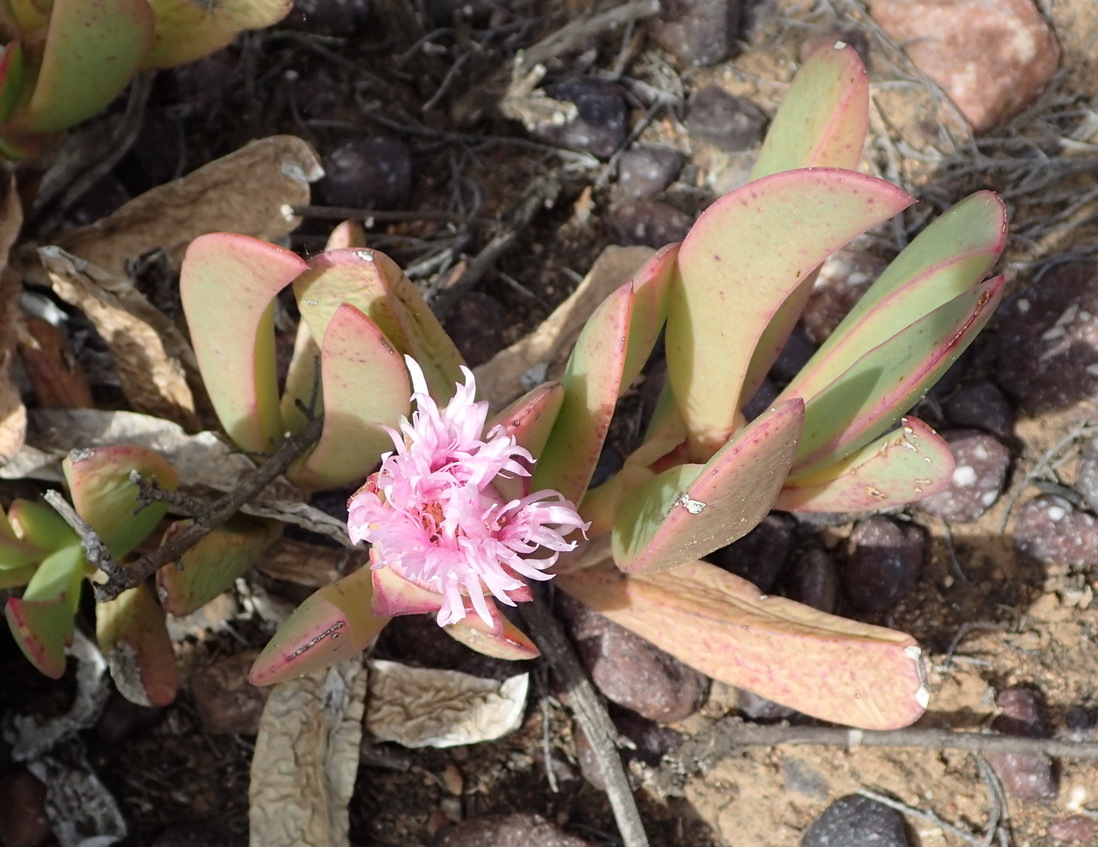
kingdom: Plantae
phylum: Tracheophyta
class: Magnoliopsida
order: Caryophyllales
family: Aizoaceae
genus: Carpobrotus
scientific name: Carpobrotus mellei
